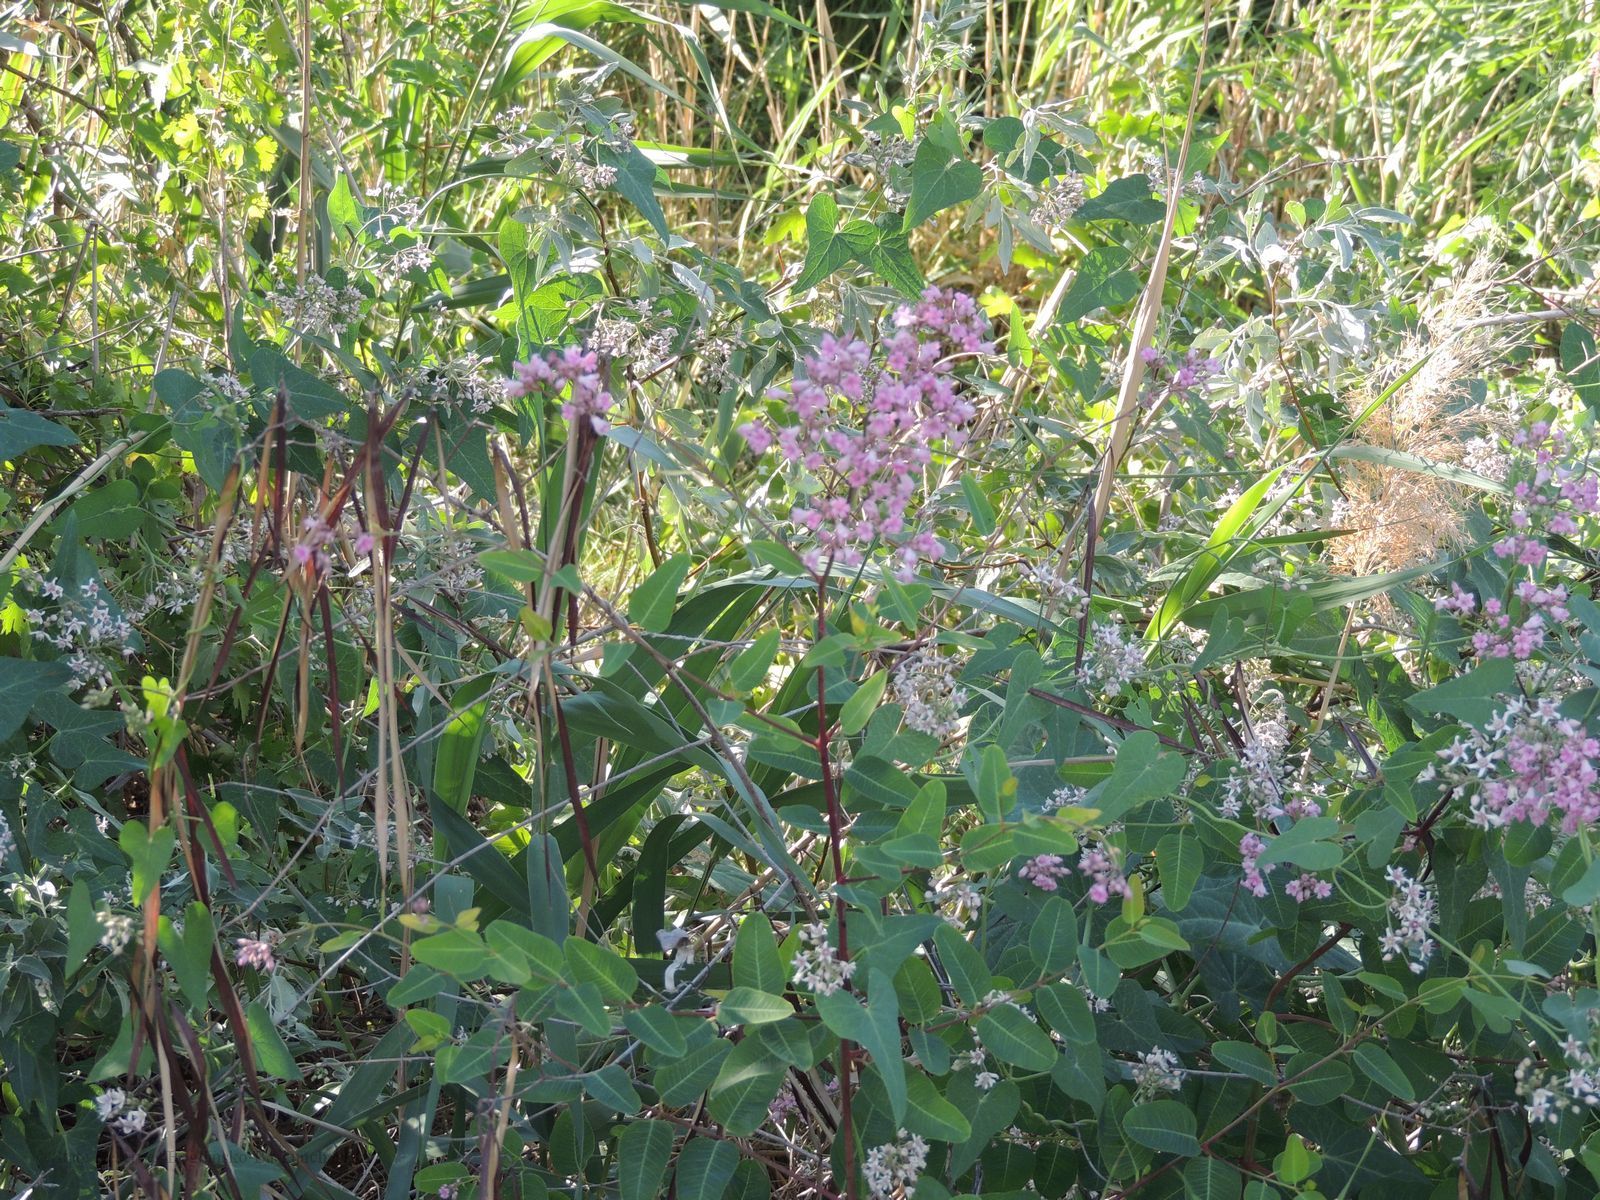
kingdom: Plantae
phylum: Tracheophyta
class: Magnoliopsida
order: Gentianales
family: Apocynaceae
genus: Poacynum
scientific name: Poacynum venetum
